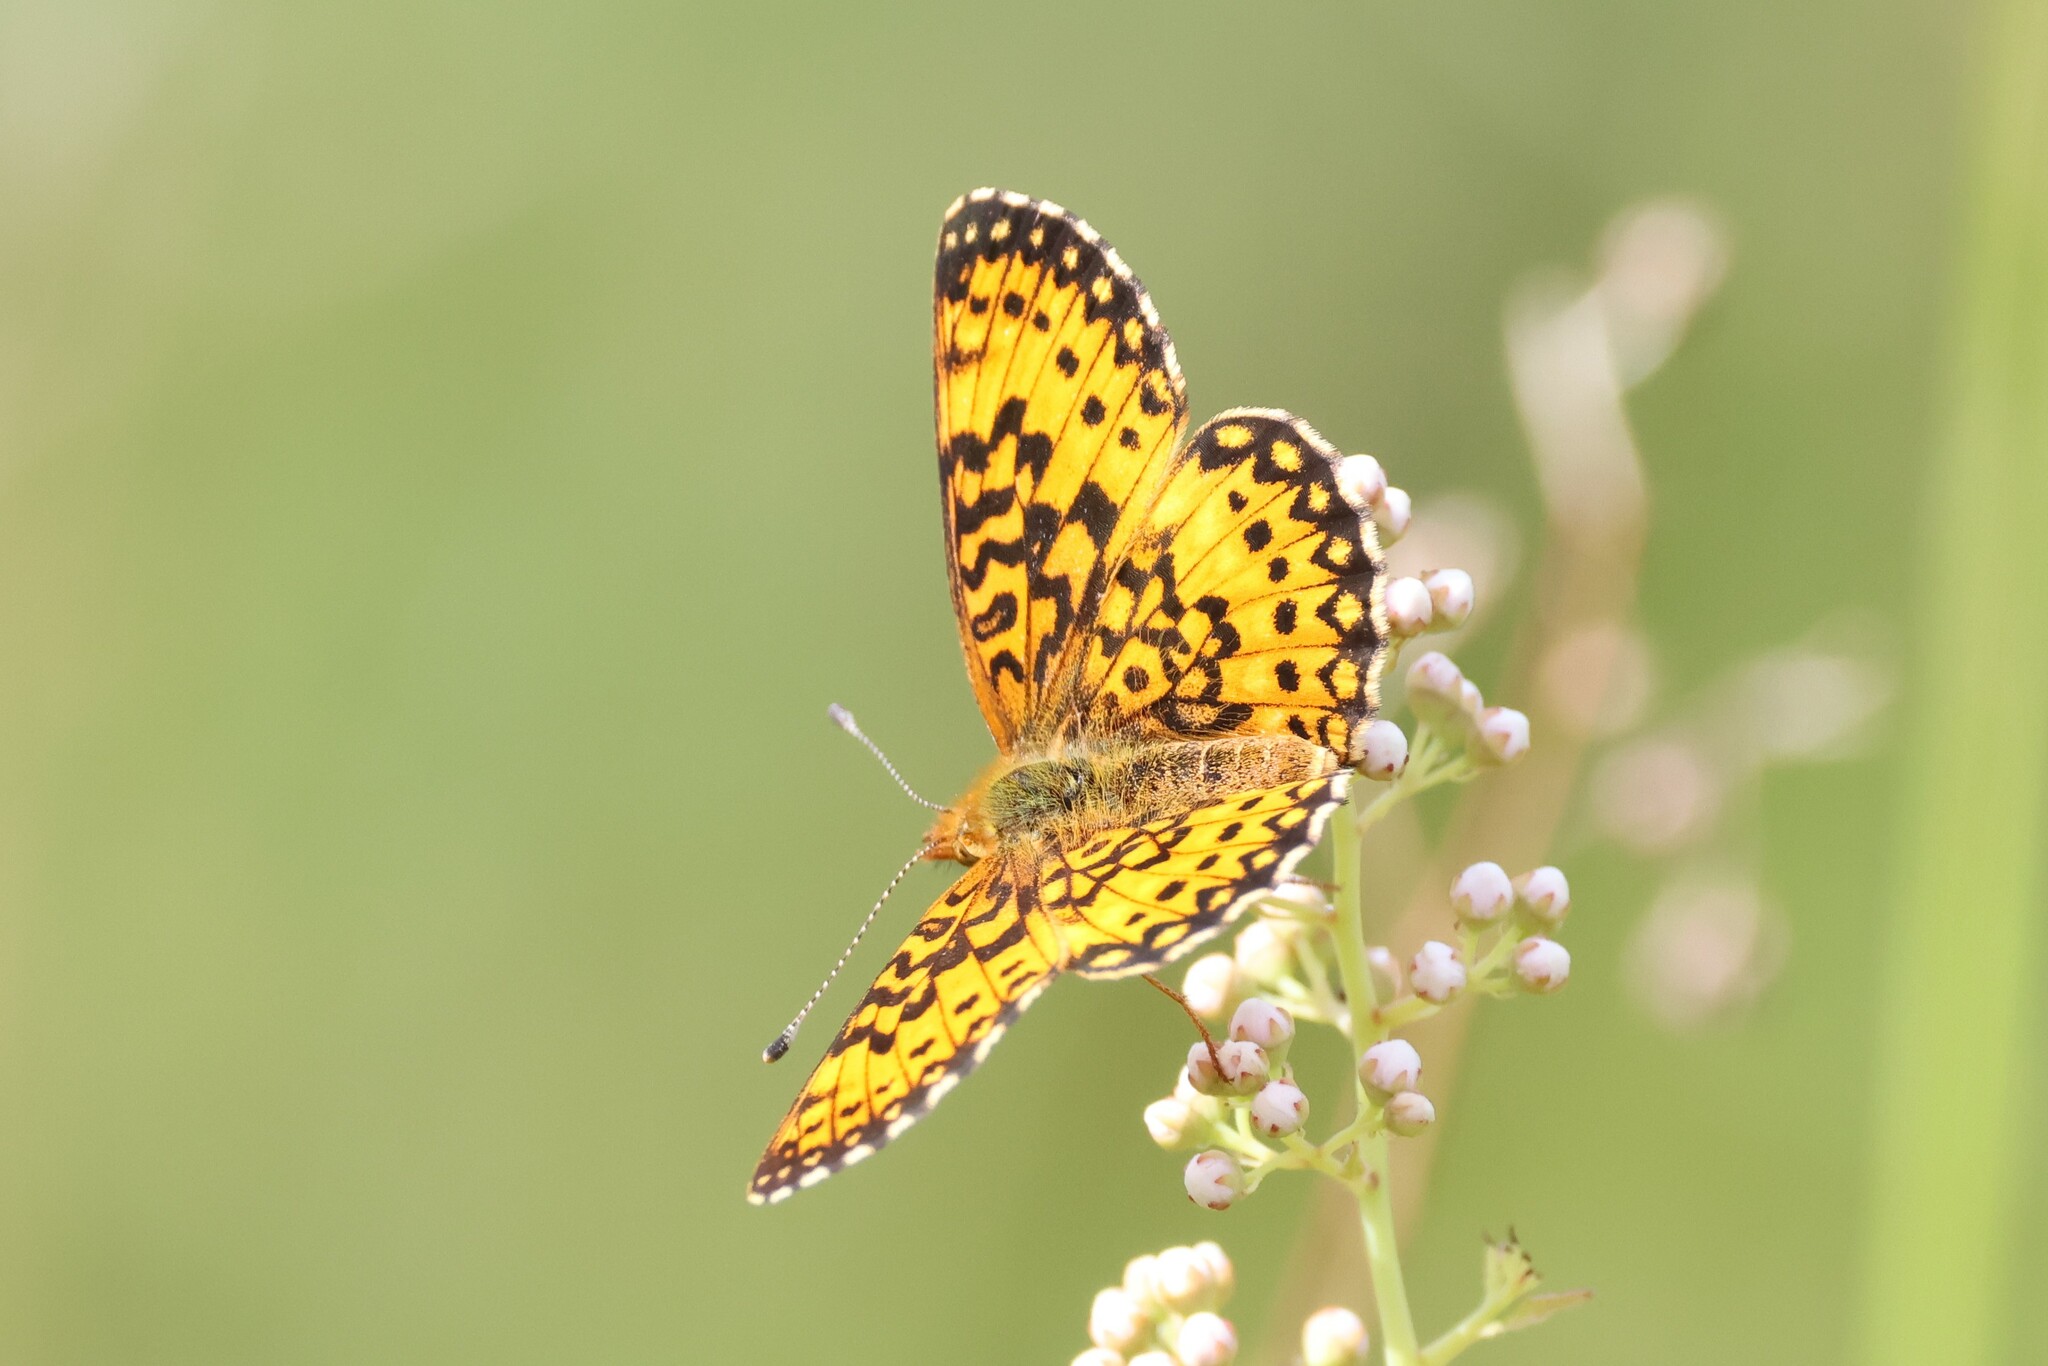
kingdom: Animalia
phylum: Arthropoda
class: Insecta
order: Lepidoptera
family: Nymphalidae
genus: Boloria
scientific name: Boloria
